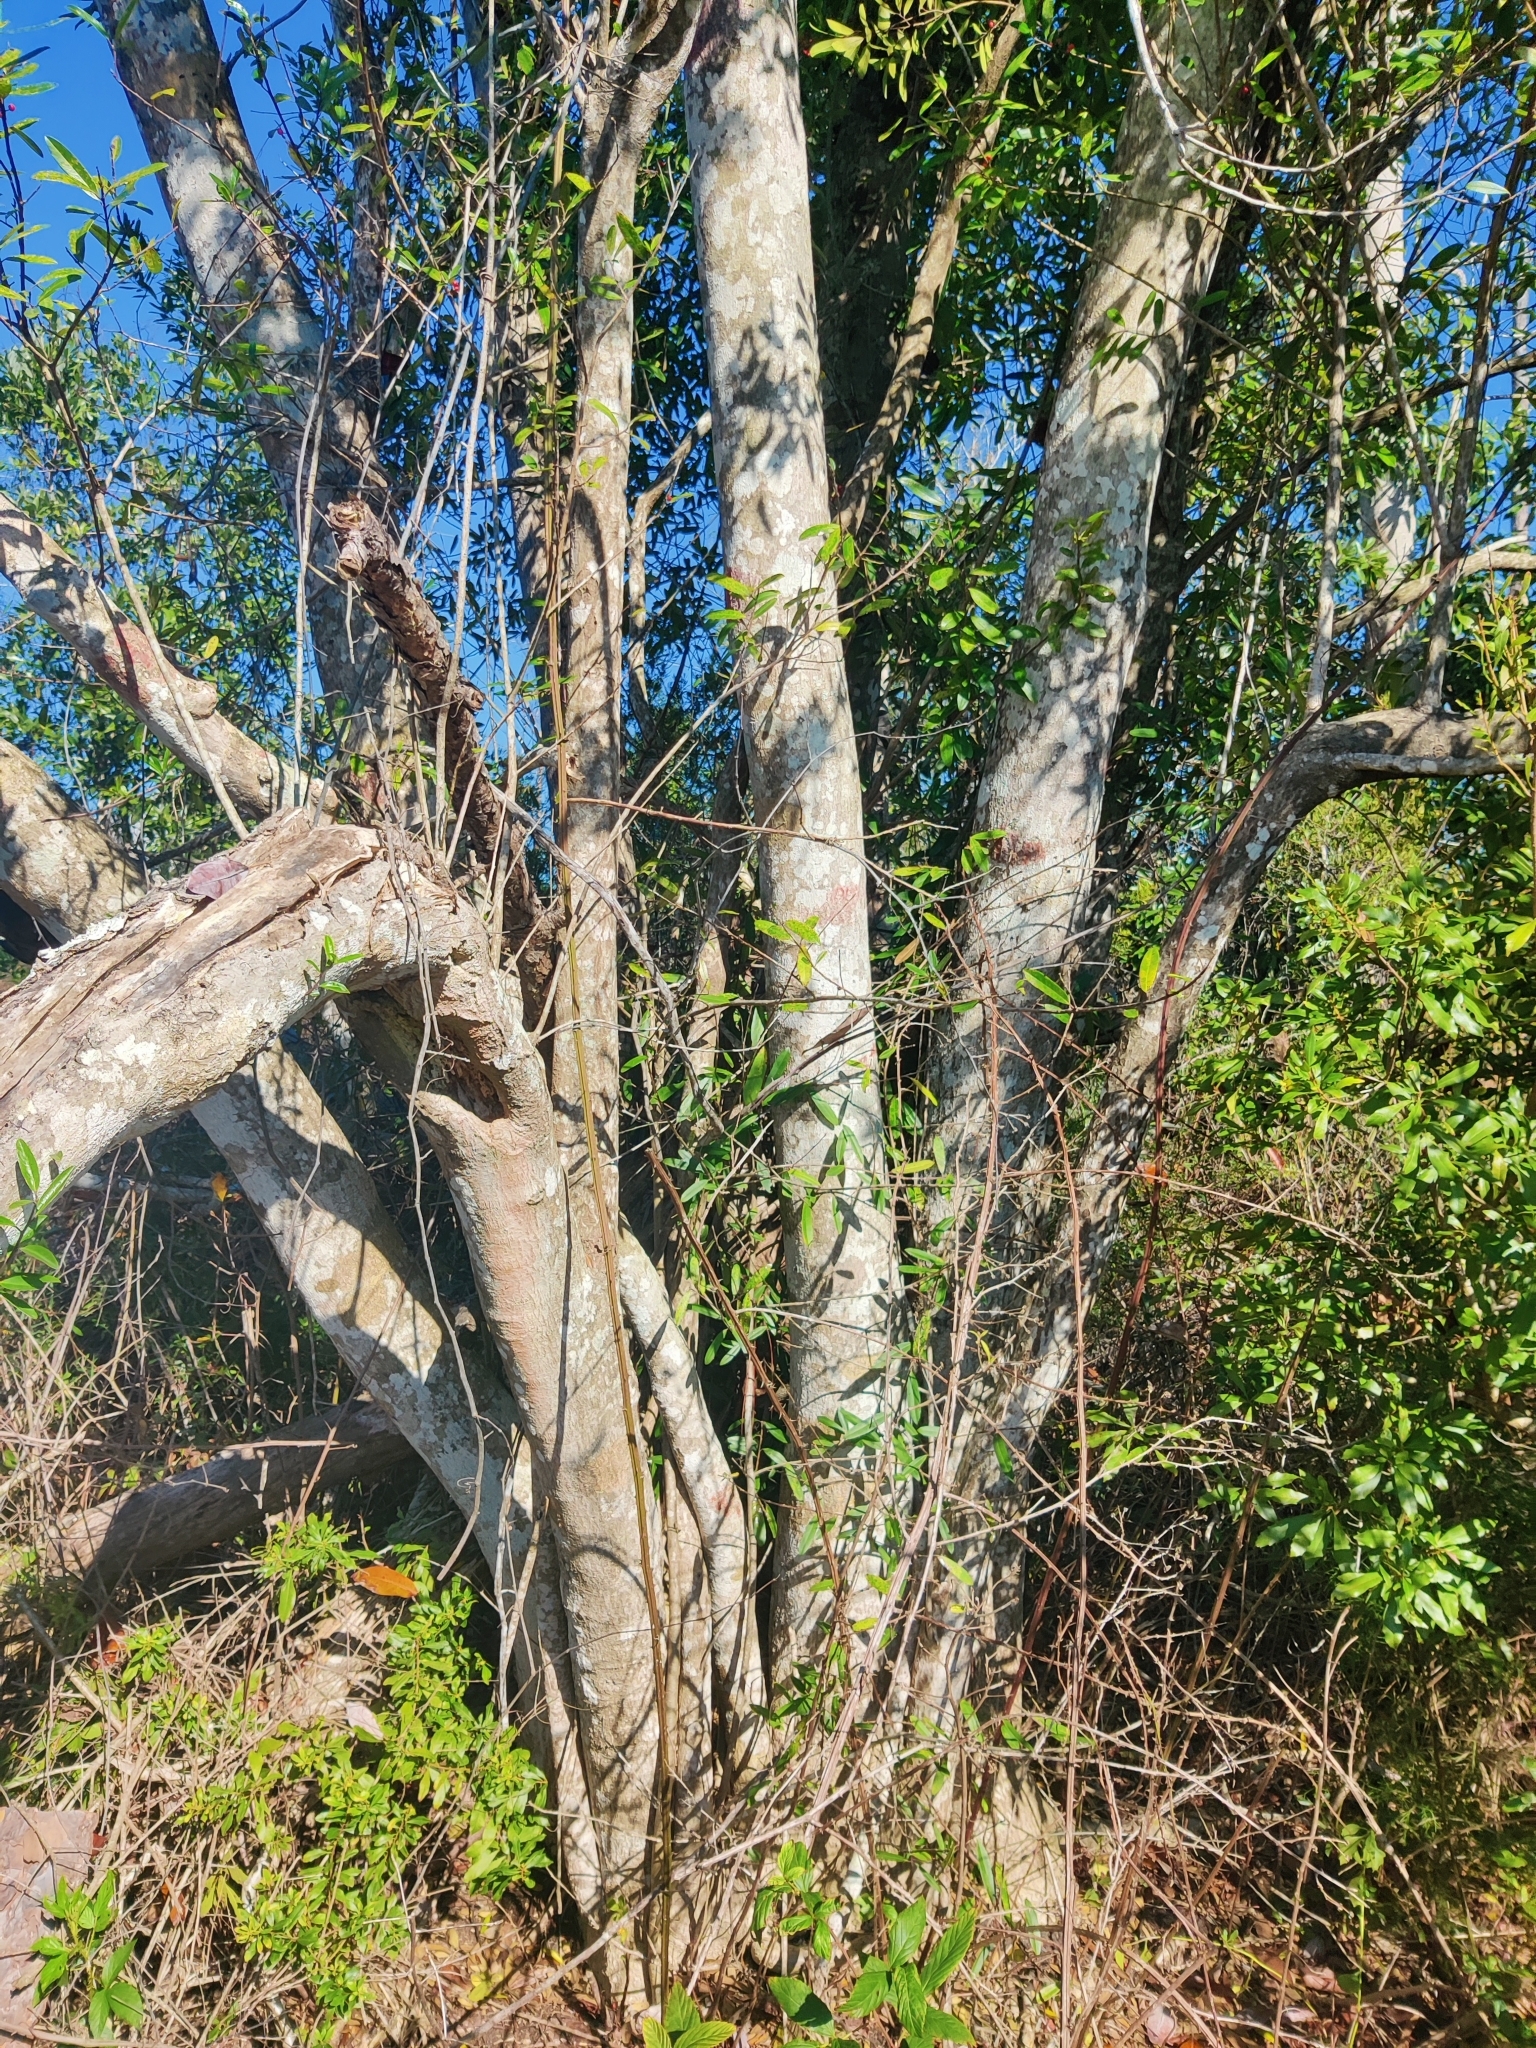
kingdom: Plantae
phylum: Tracheophyta
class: Magnoliopsida
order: Aquifoliales
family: Aquifoliaceae
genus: Ilex
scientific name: Ilex cassine
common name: Dahoon
